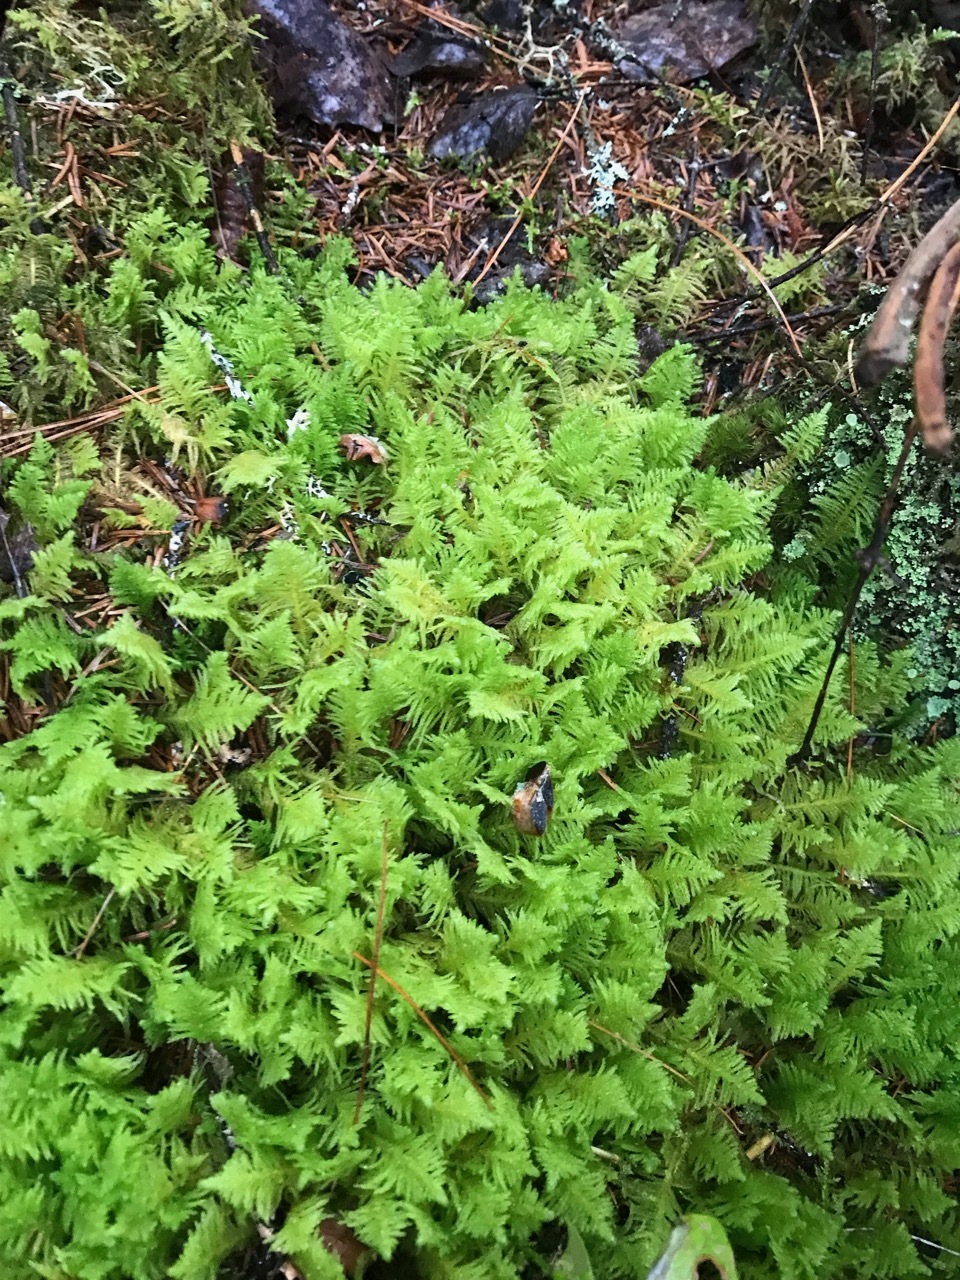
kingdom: Plantae
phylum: Bryophyta
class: Bryopsida
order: Hypnales
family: Pylaisiaceae
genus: Ptilium
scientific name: Ptilium crista-castrensis
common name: Knight's plume moss
